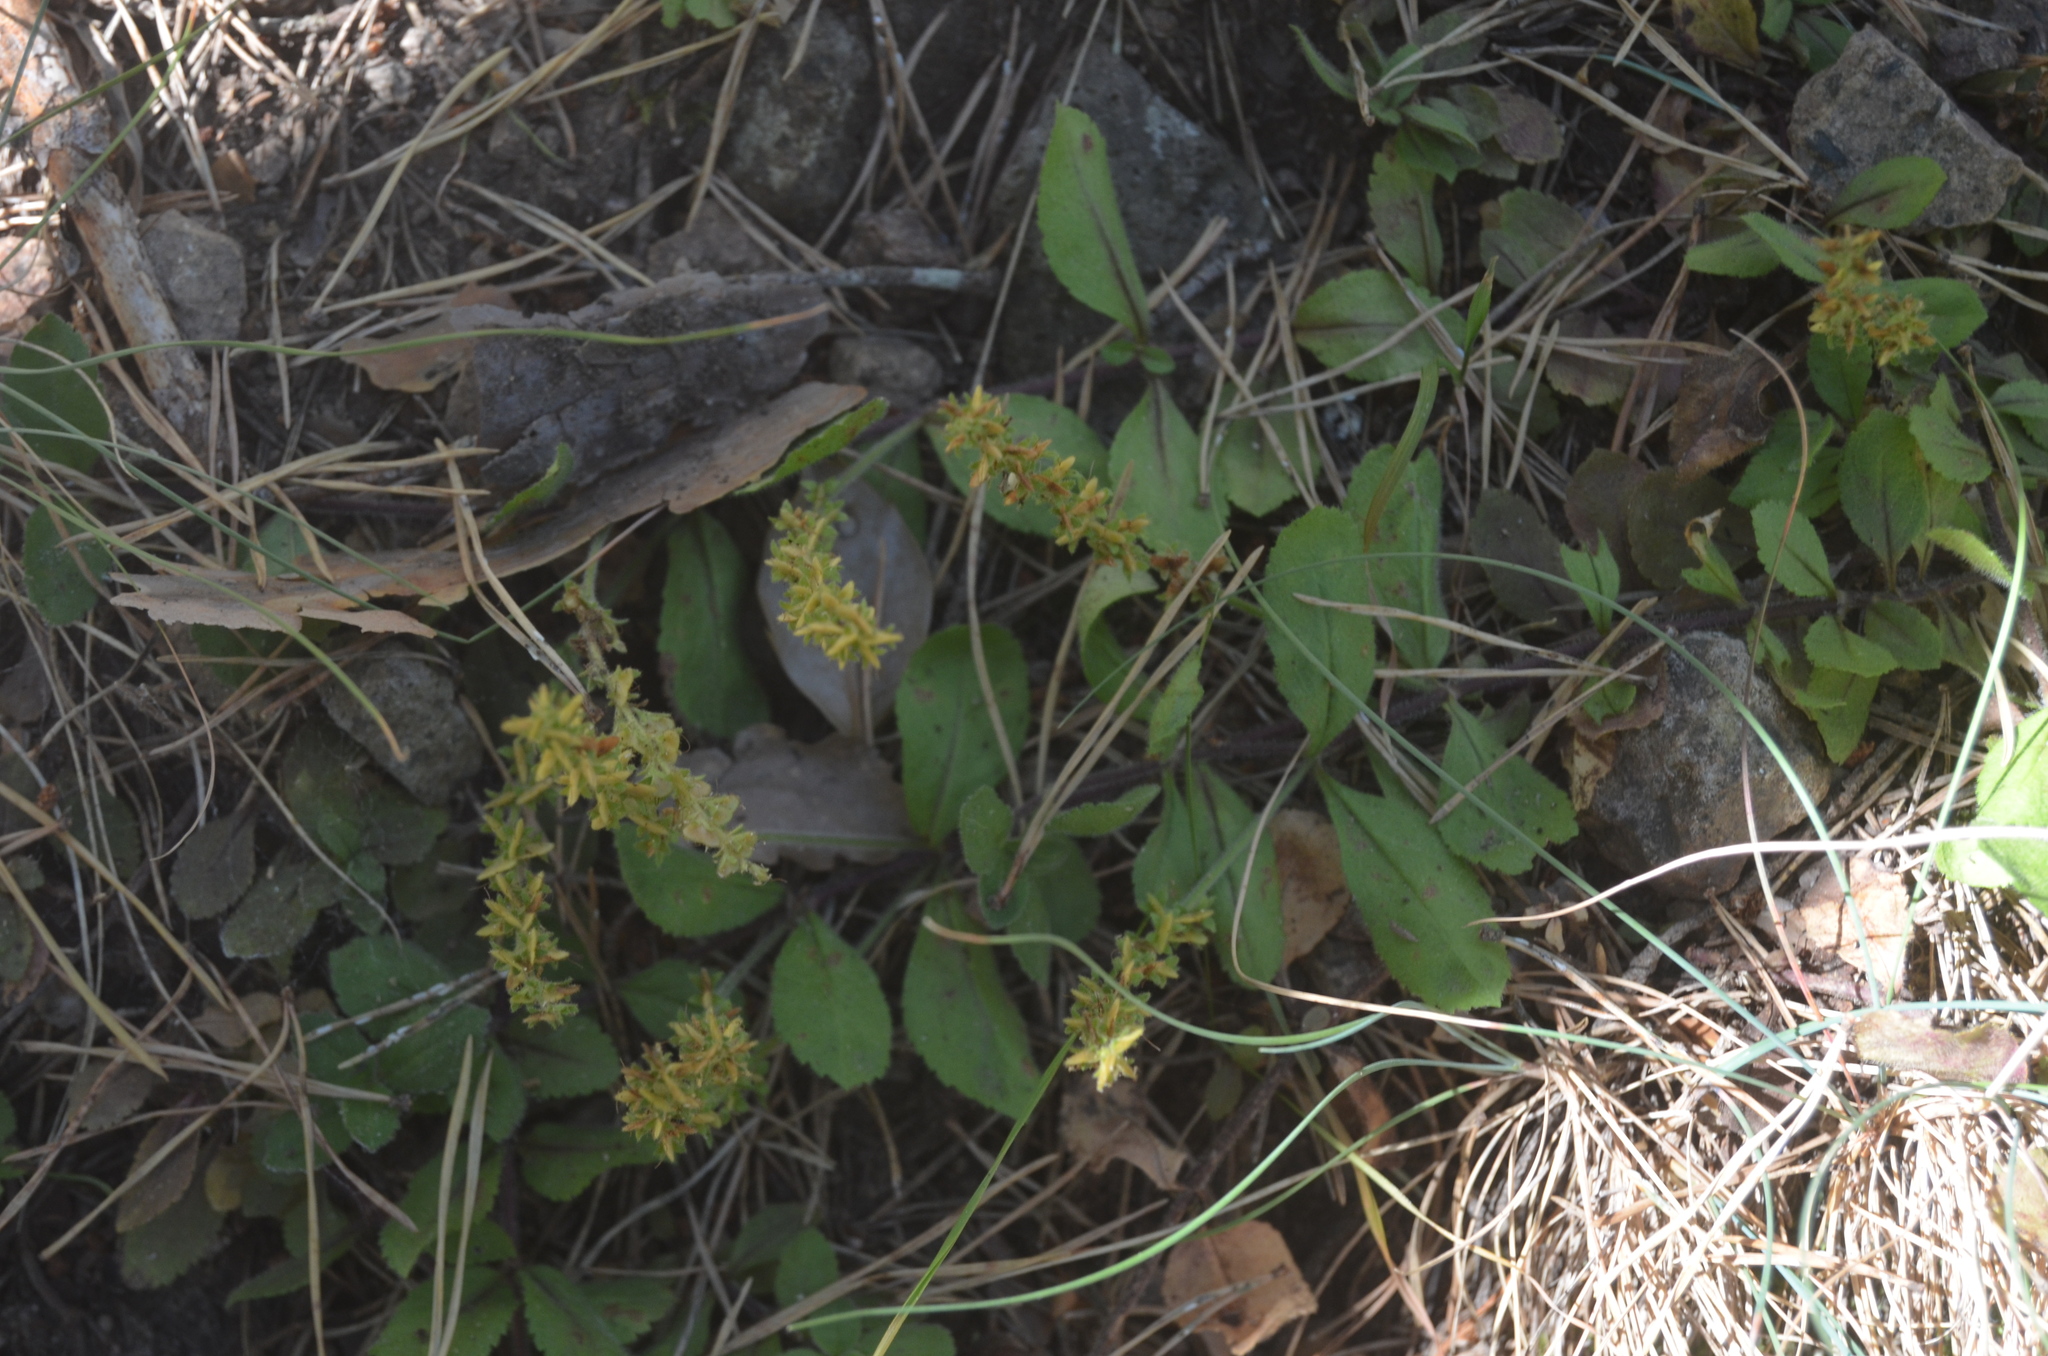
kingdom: Plantae
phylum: Tracheophyta
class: Magnoliopsida
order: Lamiales
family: Plantaginaceae
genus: Veronica
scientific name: Veronica officinalis
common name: Common speedwell
